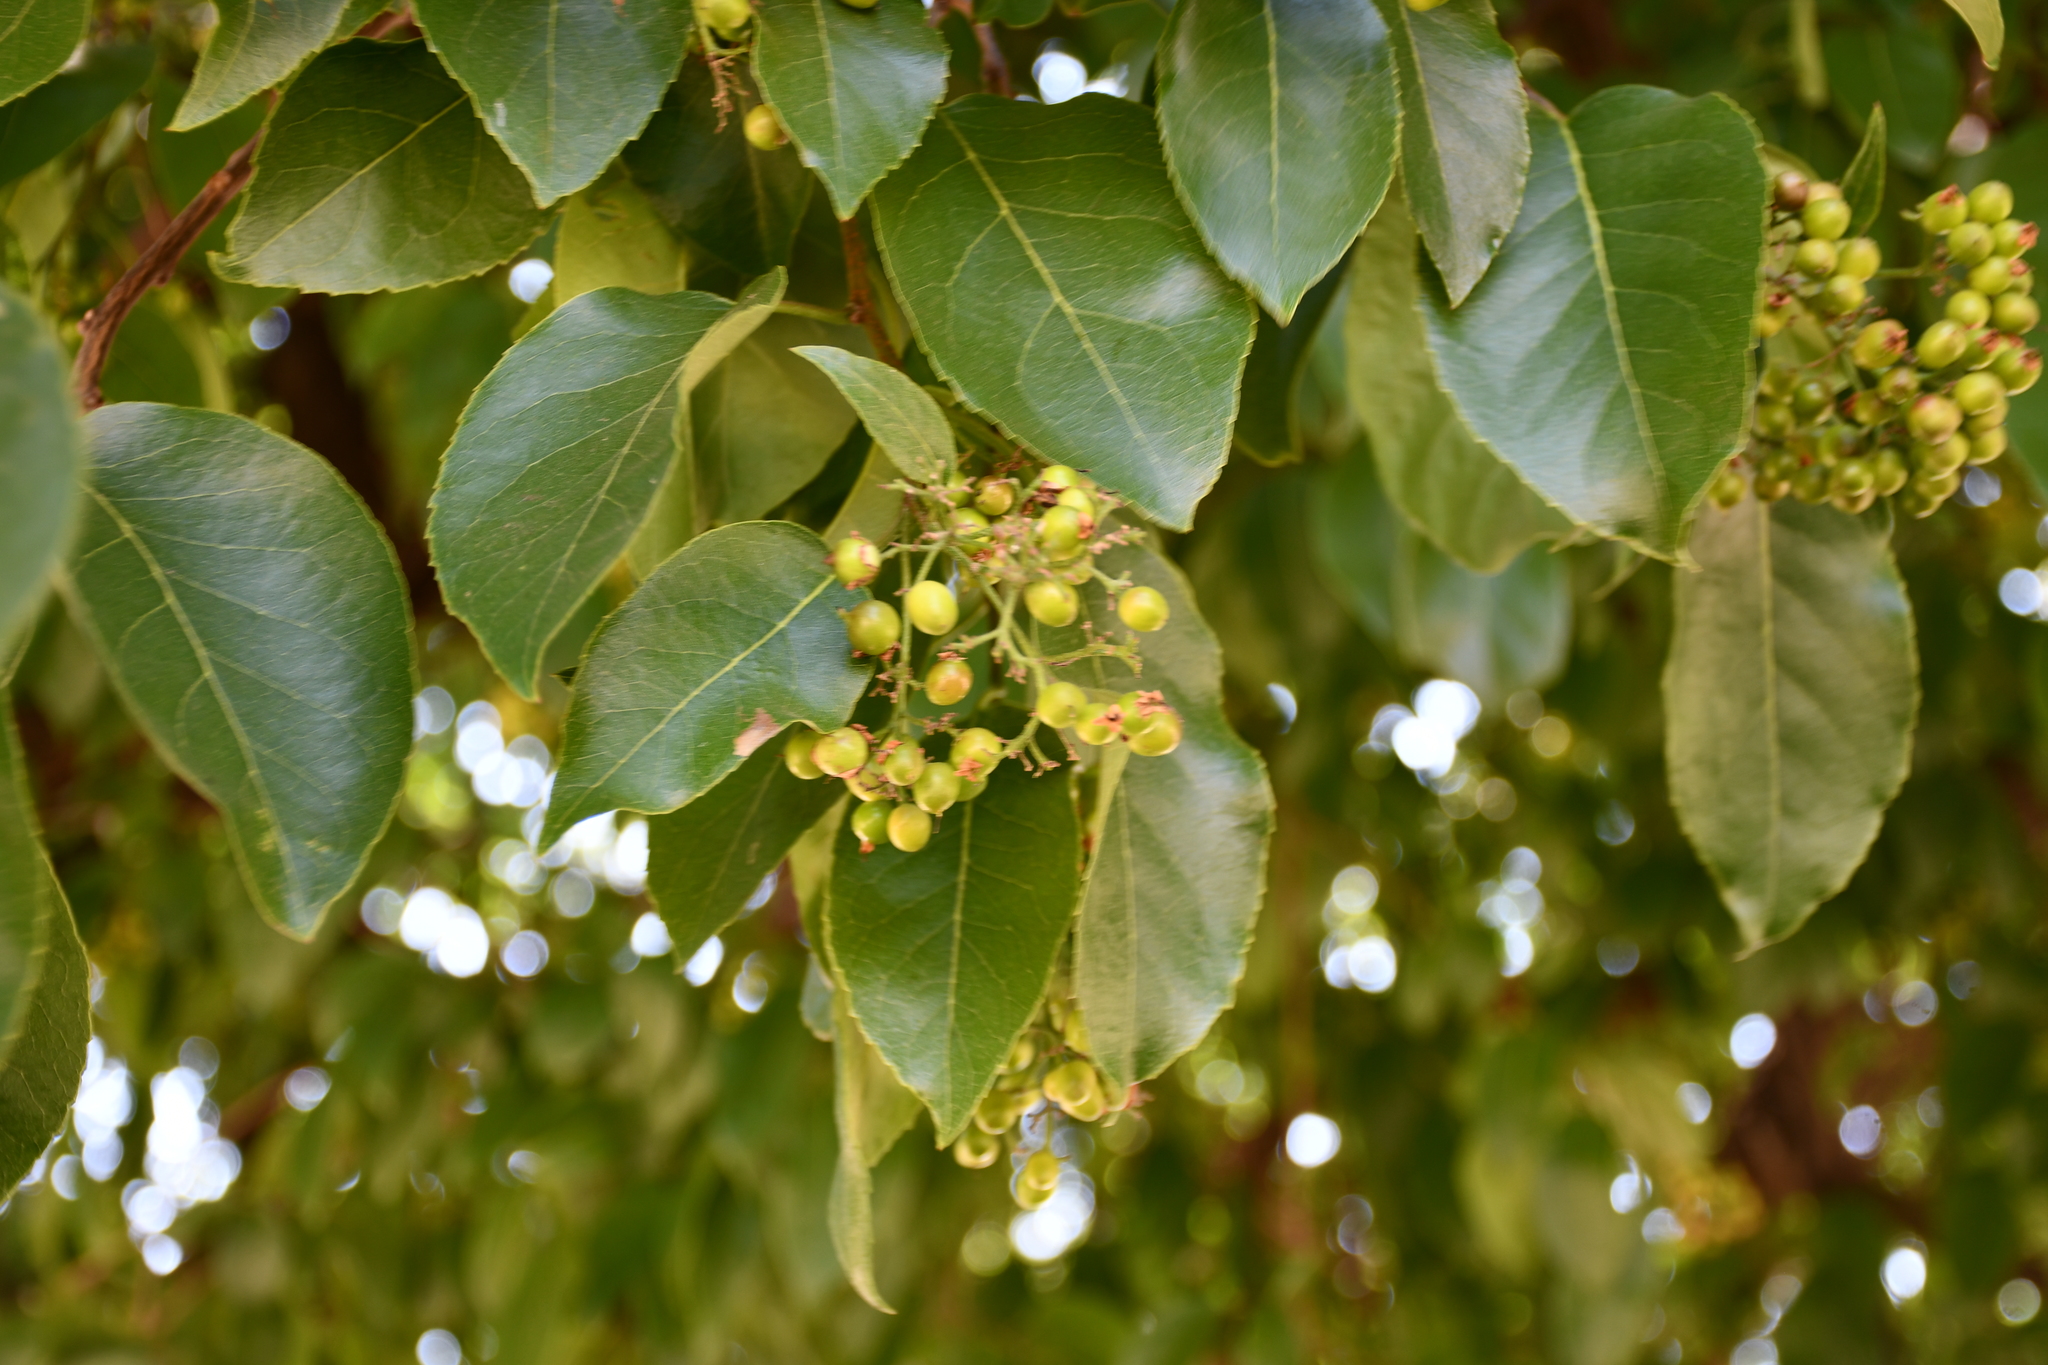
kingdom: Plantae
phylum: Tracheophyta
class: Magnoliopsida
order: Boraginales
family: Ehretiaceae
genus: Ehretia
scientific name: Ehretia latifolia
